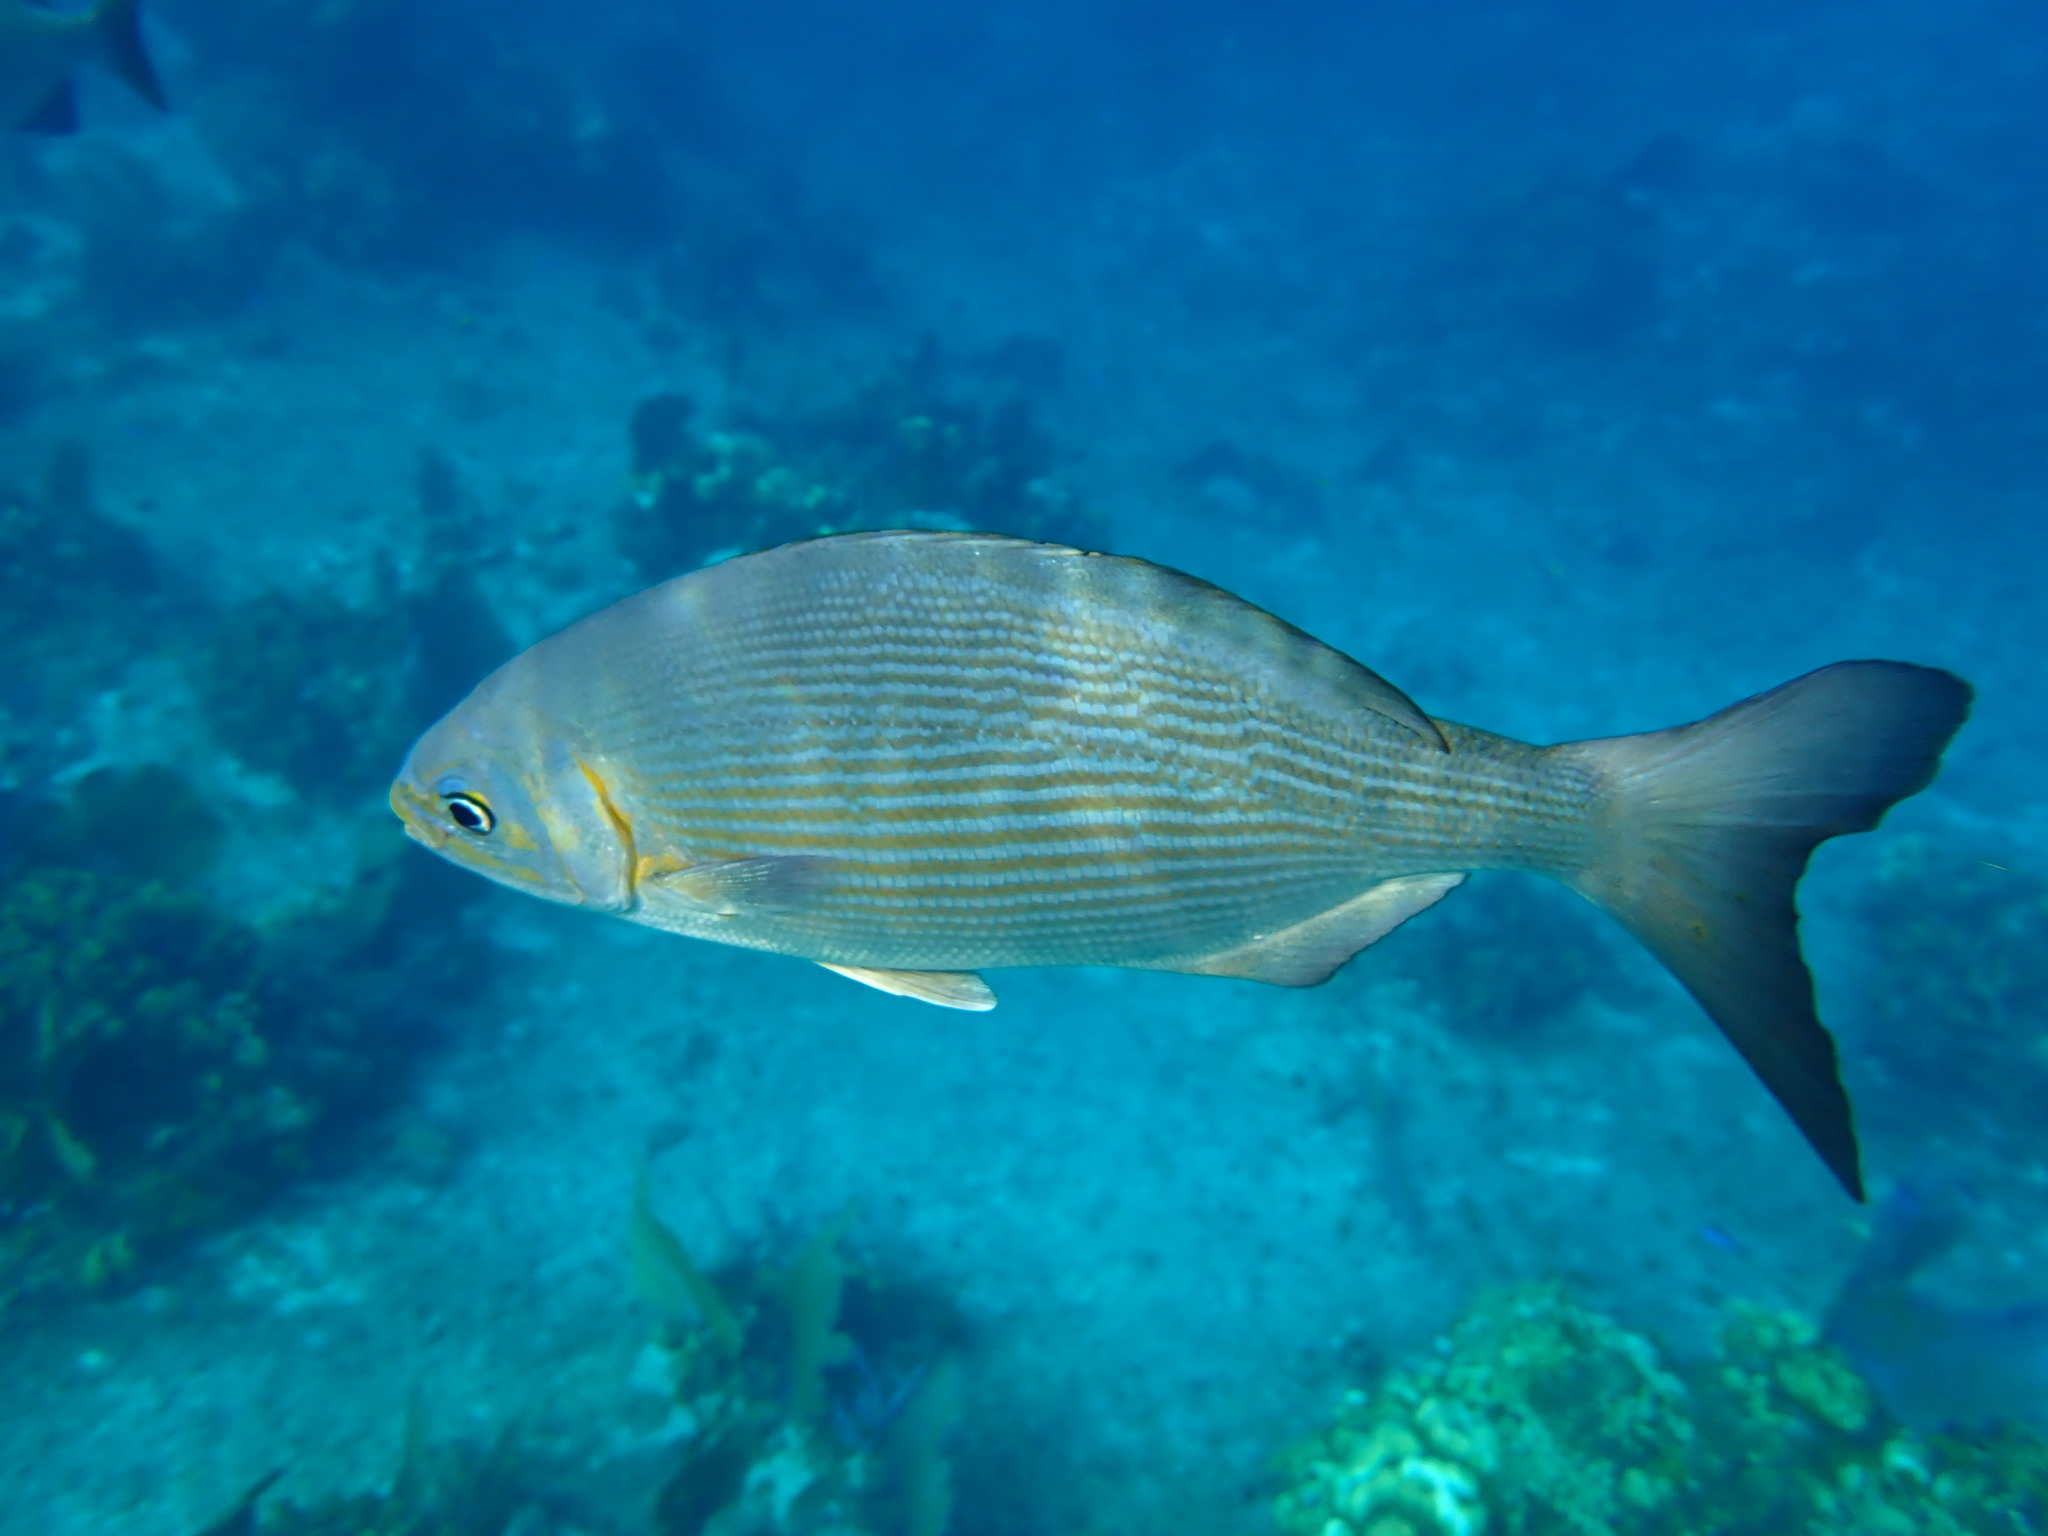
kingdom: Animalia
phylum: Chordata
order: Perciformes
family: Kyphosidae
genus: Kyphosus
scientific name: Kyphosus vaigiensis
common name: Brassy chub
